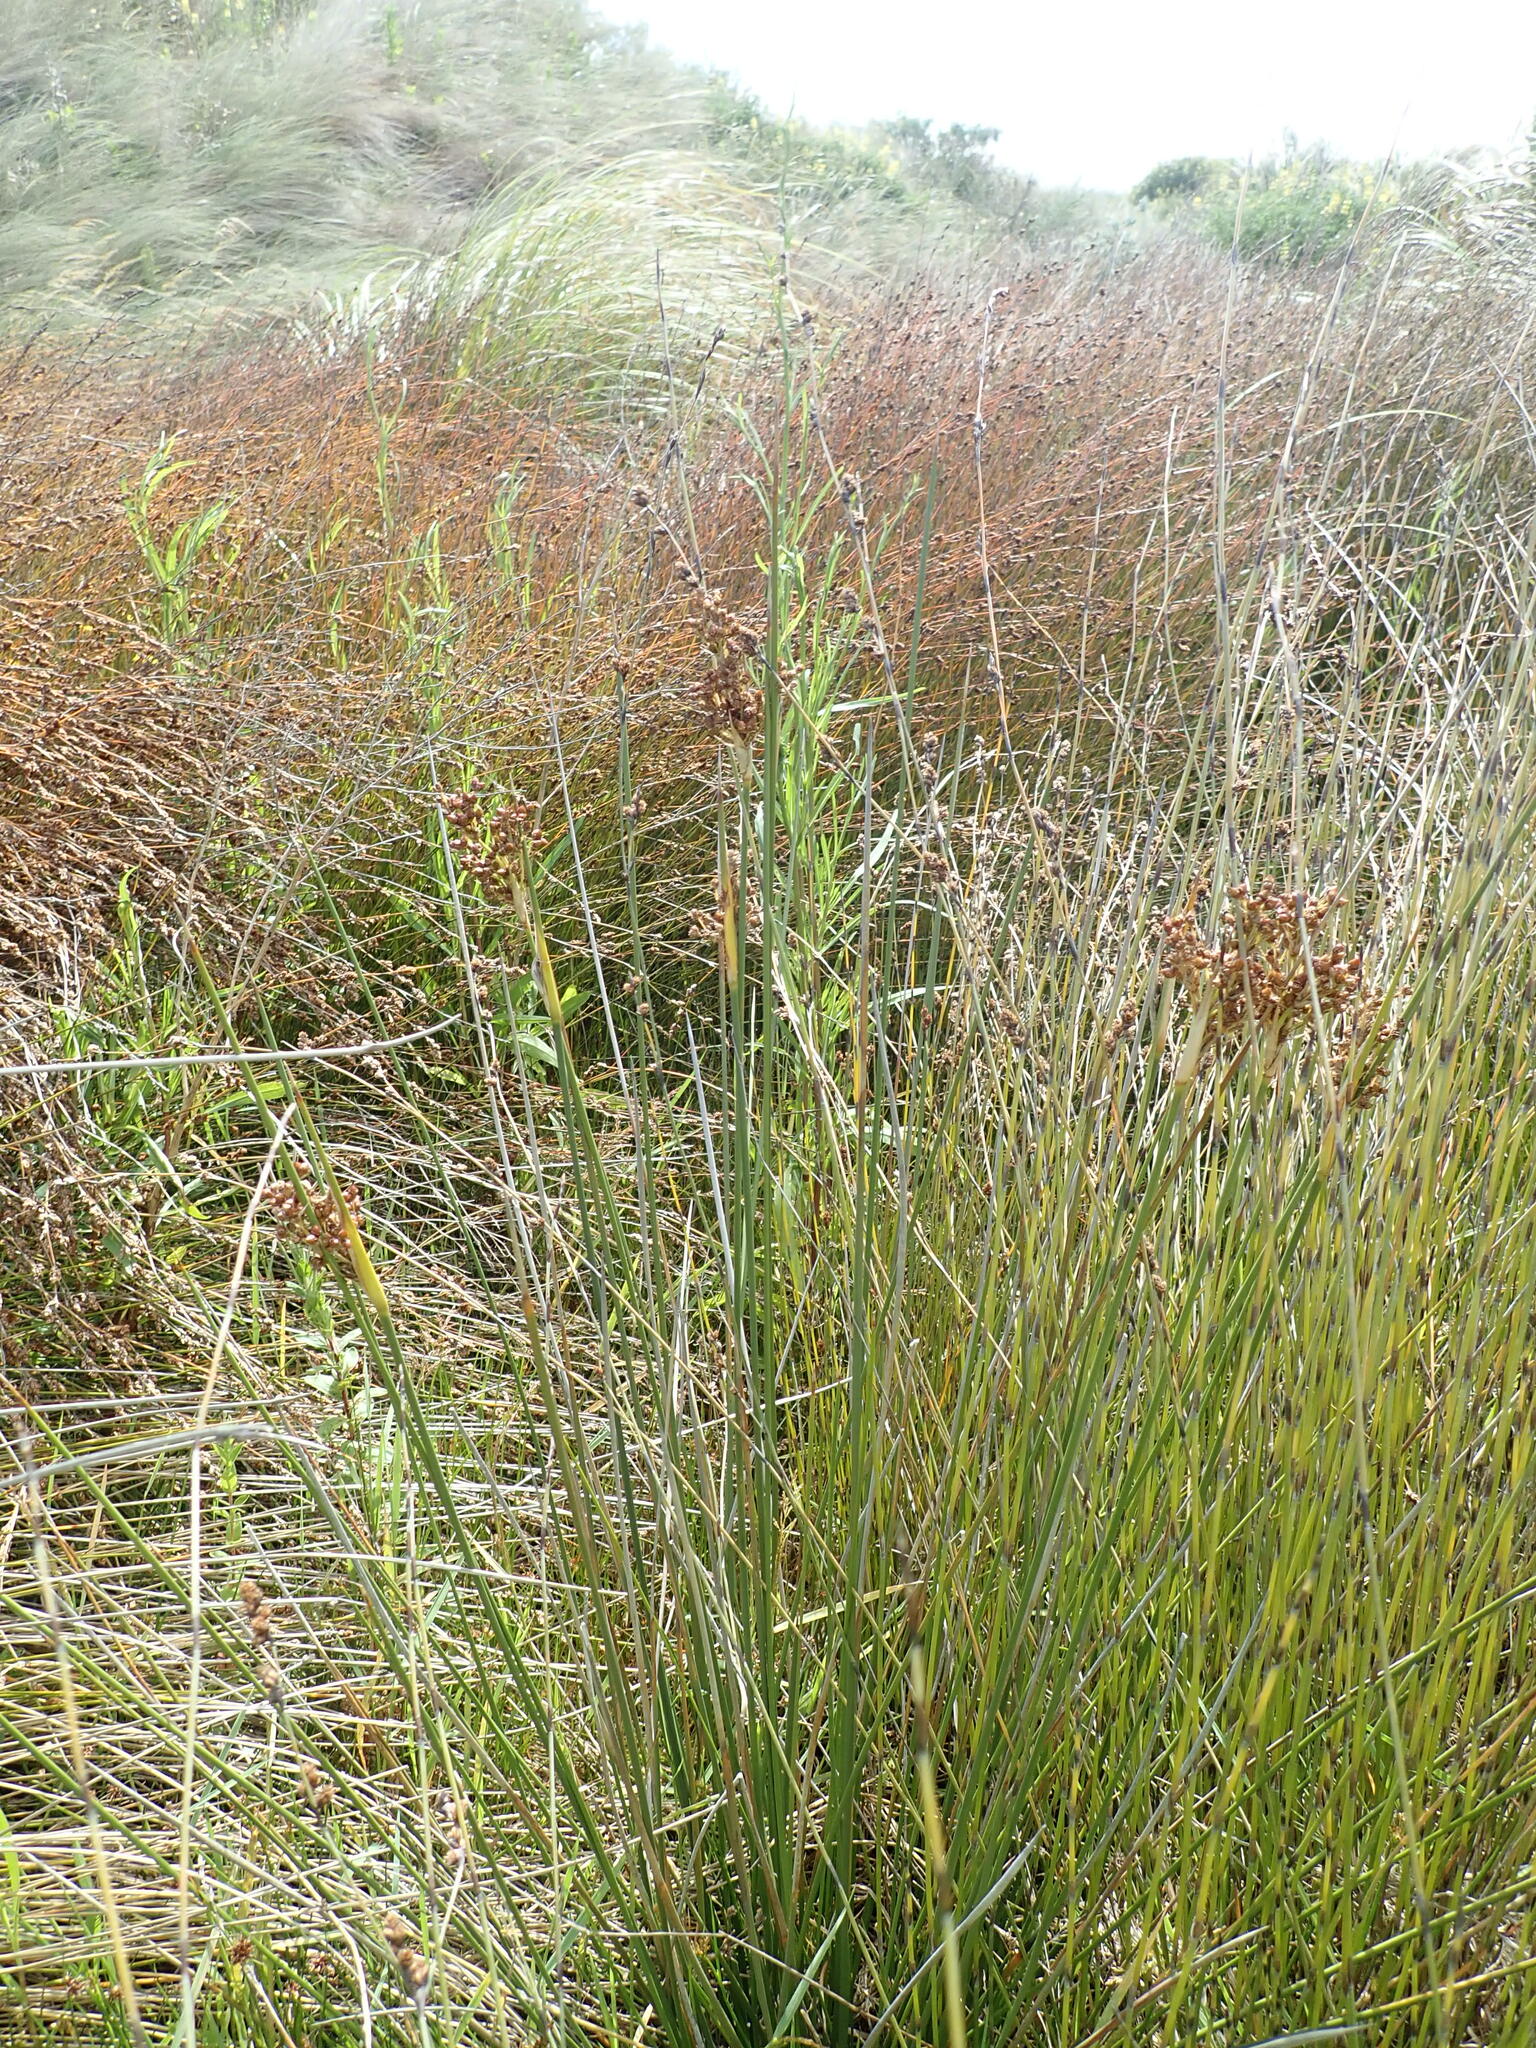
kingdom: Plantae
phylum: Tracheophyta
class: Liliopsida
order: Poales
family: Juncaceae
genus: Juncus
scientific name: Juncus acutus
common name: Sharp rush
